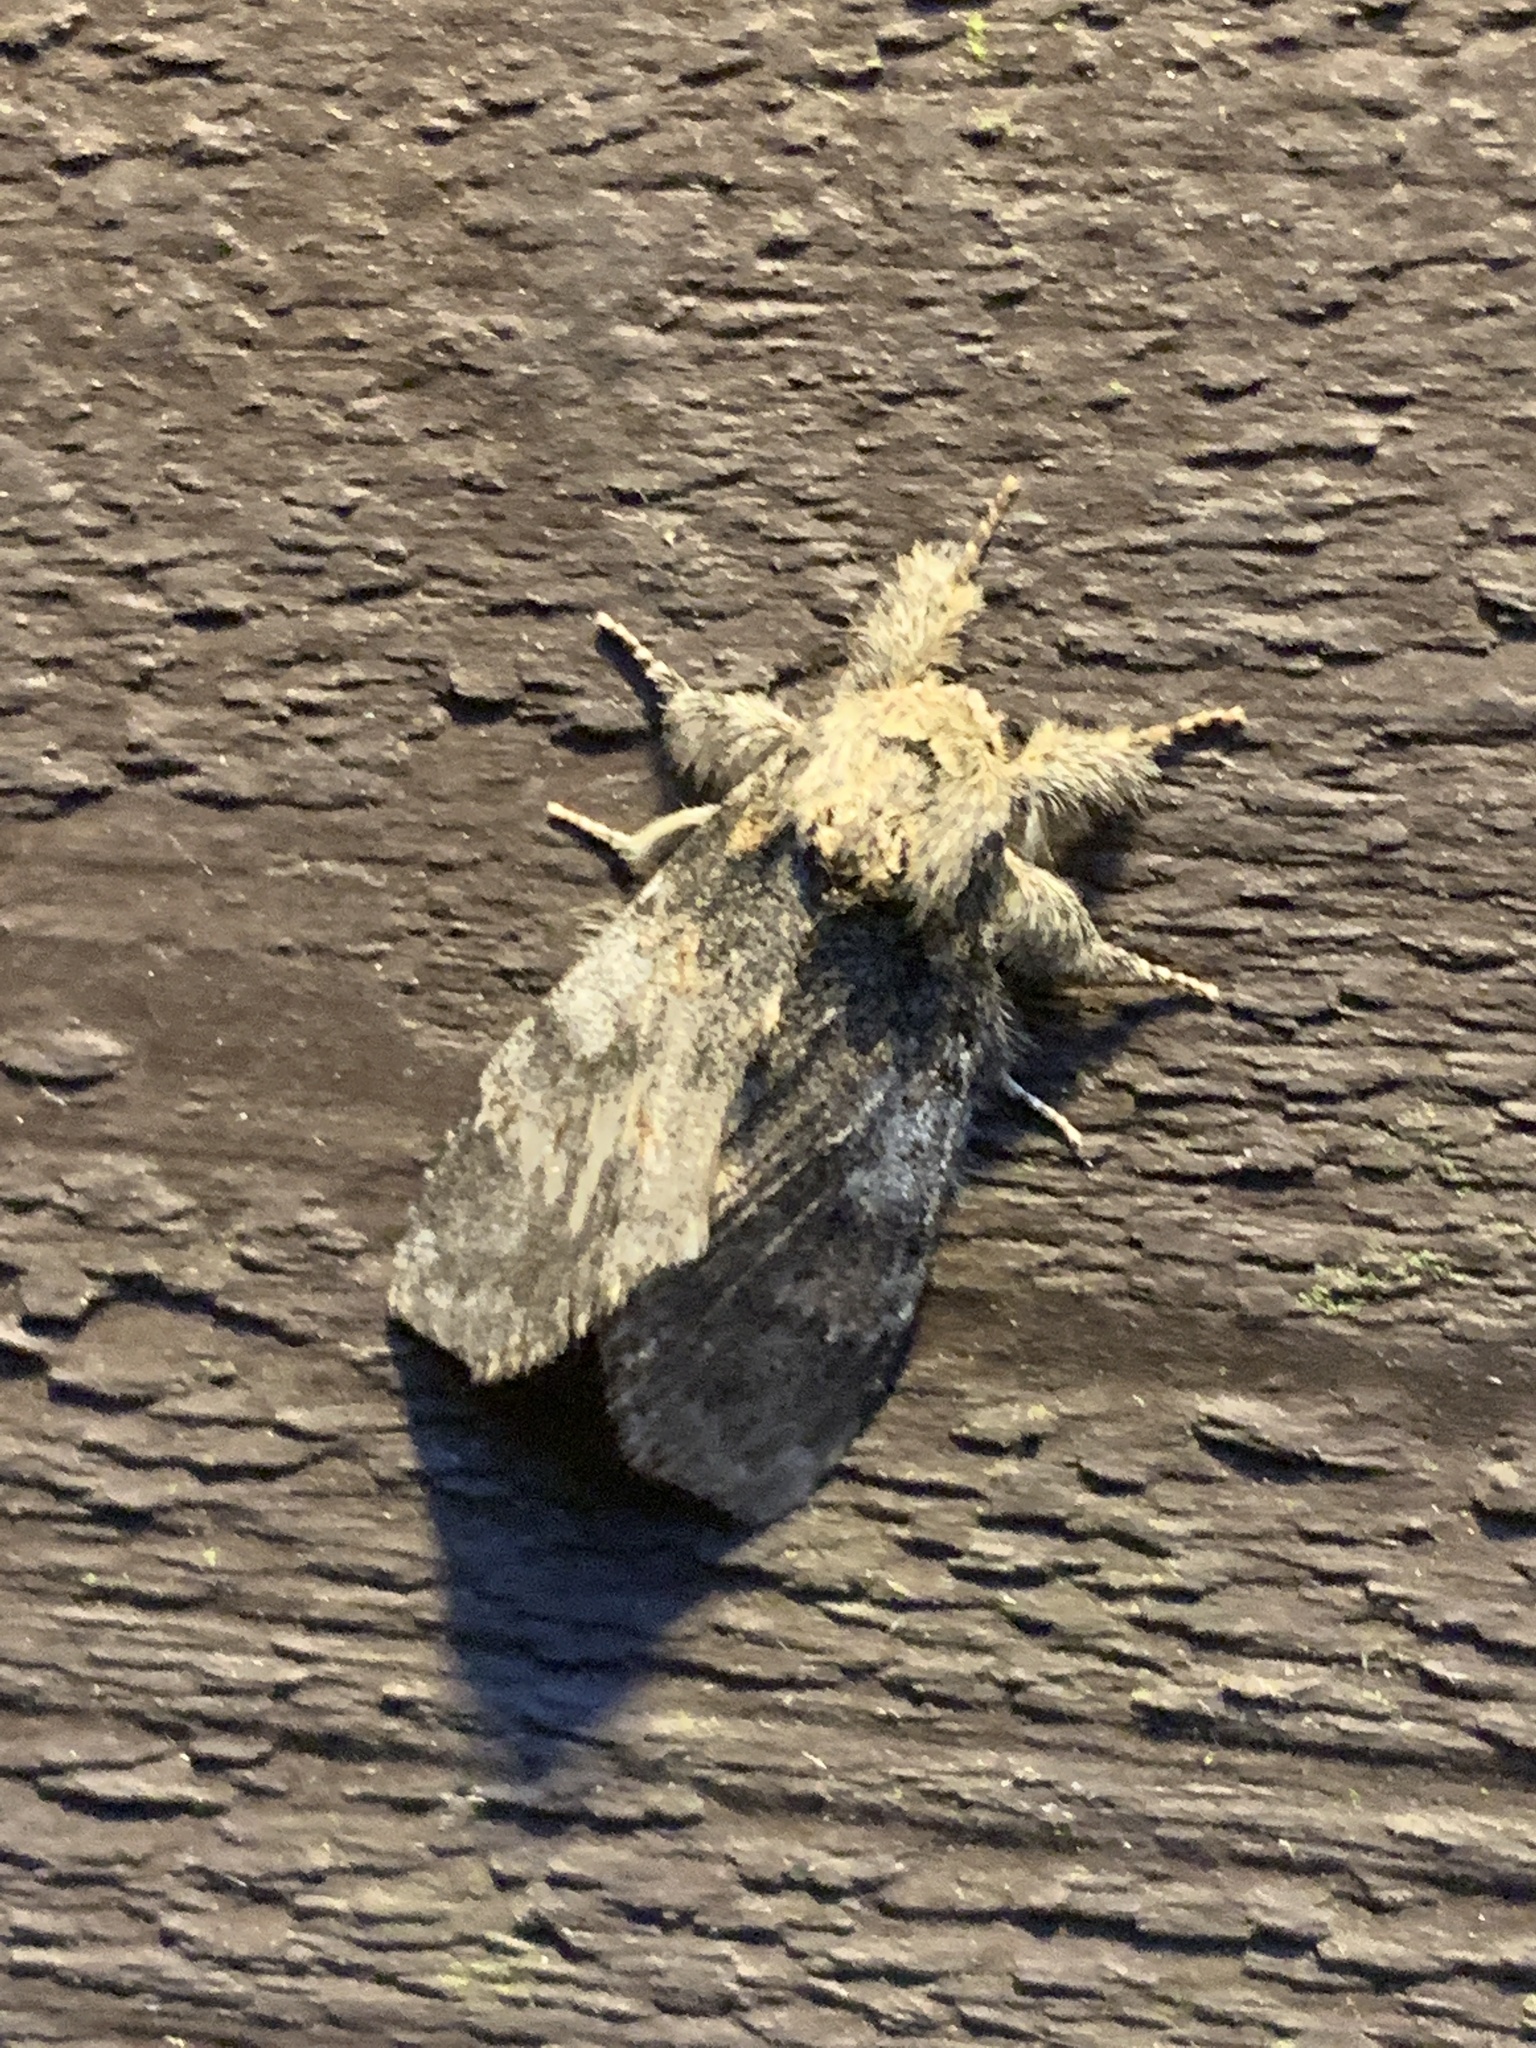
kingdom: Animalia
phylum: Arthropoda
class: Insecta
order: Lepidoptera
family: Notodontidae
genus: Peridea
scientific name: Peridea angulosa
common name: Angulose prominent
